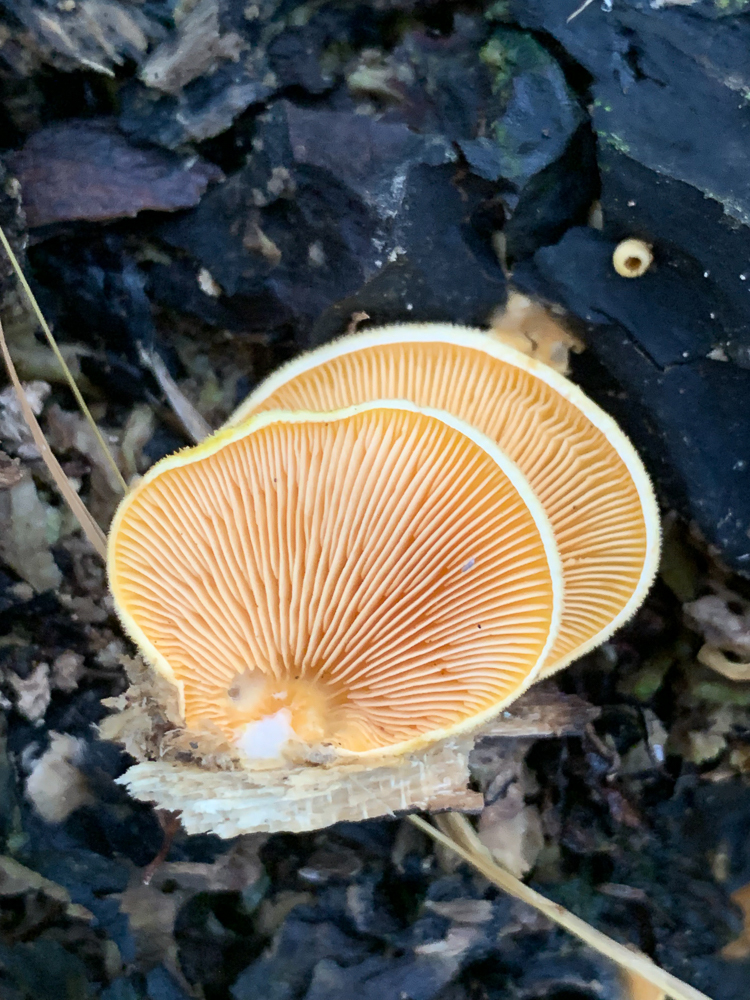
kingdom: Fungi
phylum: Basidiomycota
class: Agaricomycetes
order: Agaricales
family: Phyllotopsidaceae
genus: Phyllotopsis
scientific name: Phyllotopsis nidulans
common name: Orange mock oyster
